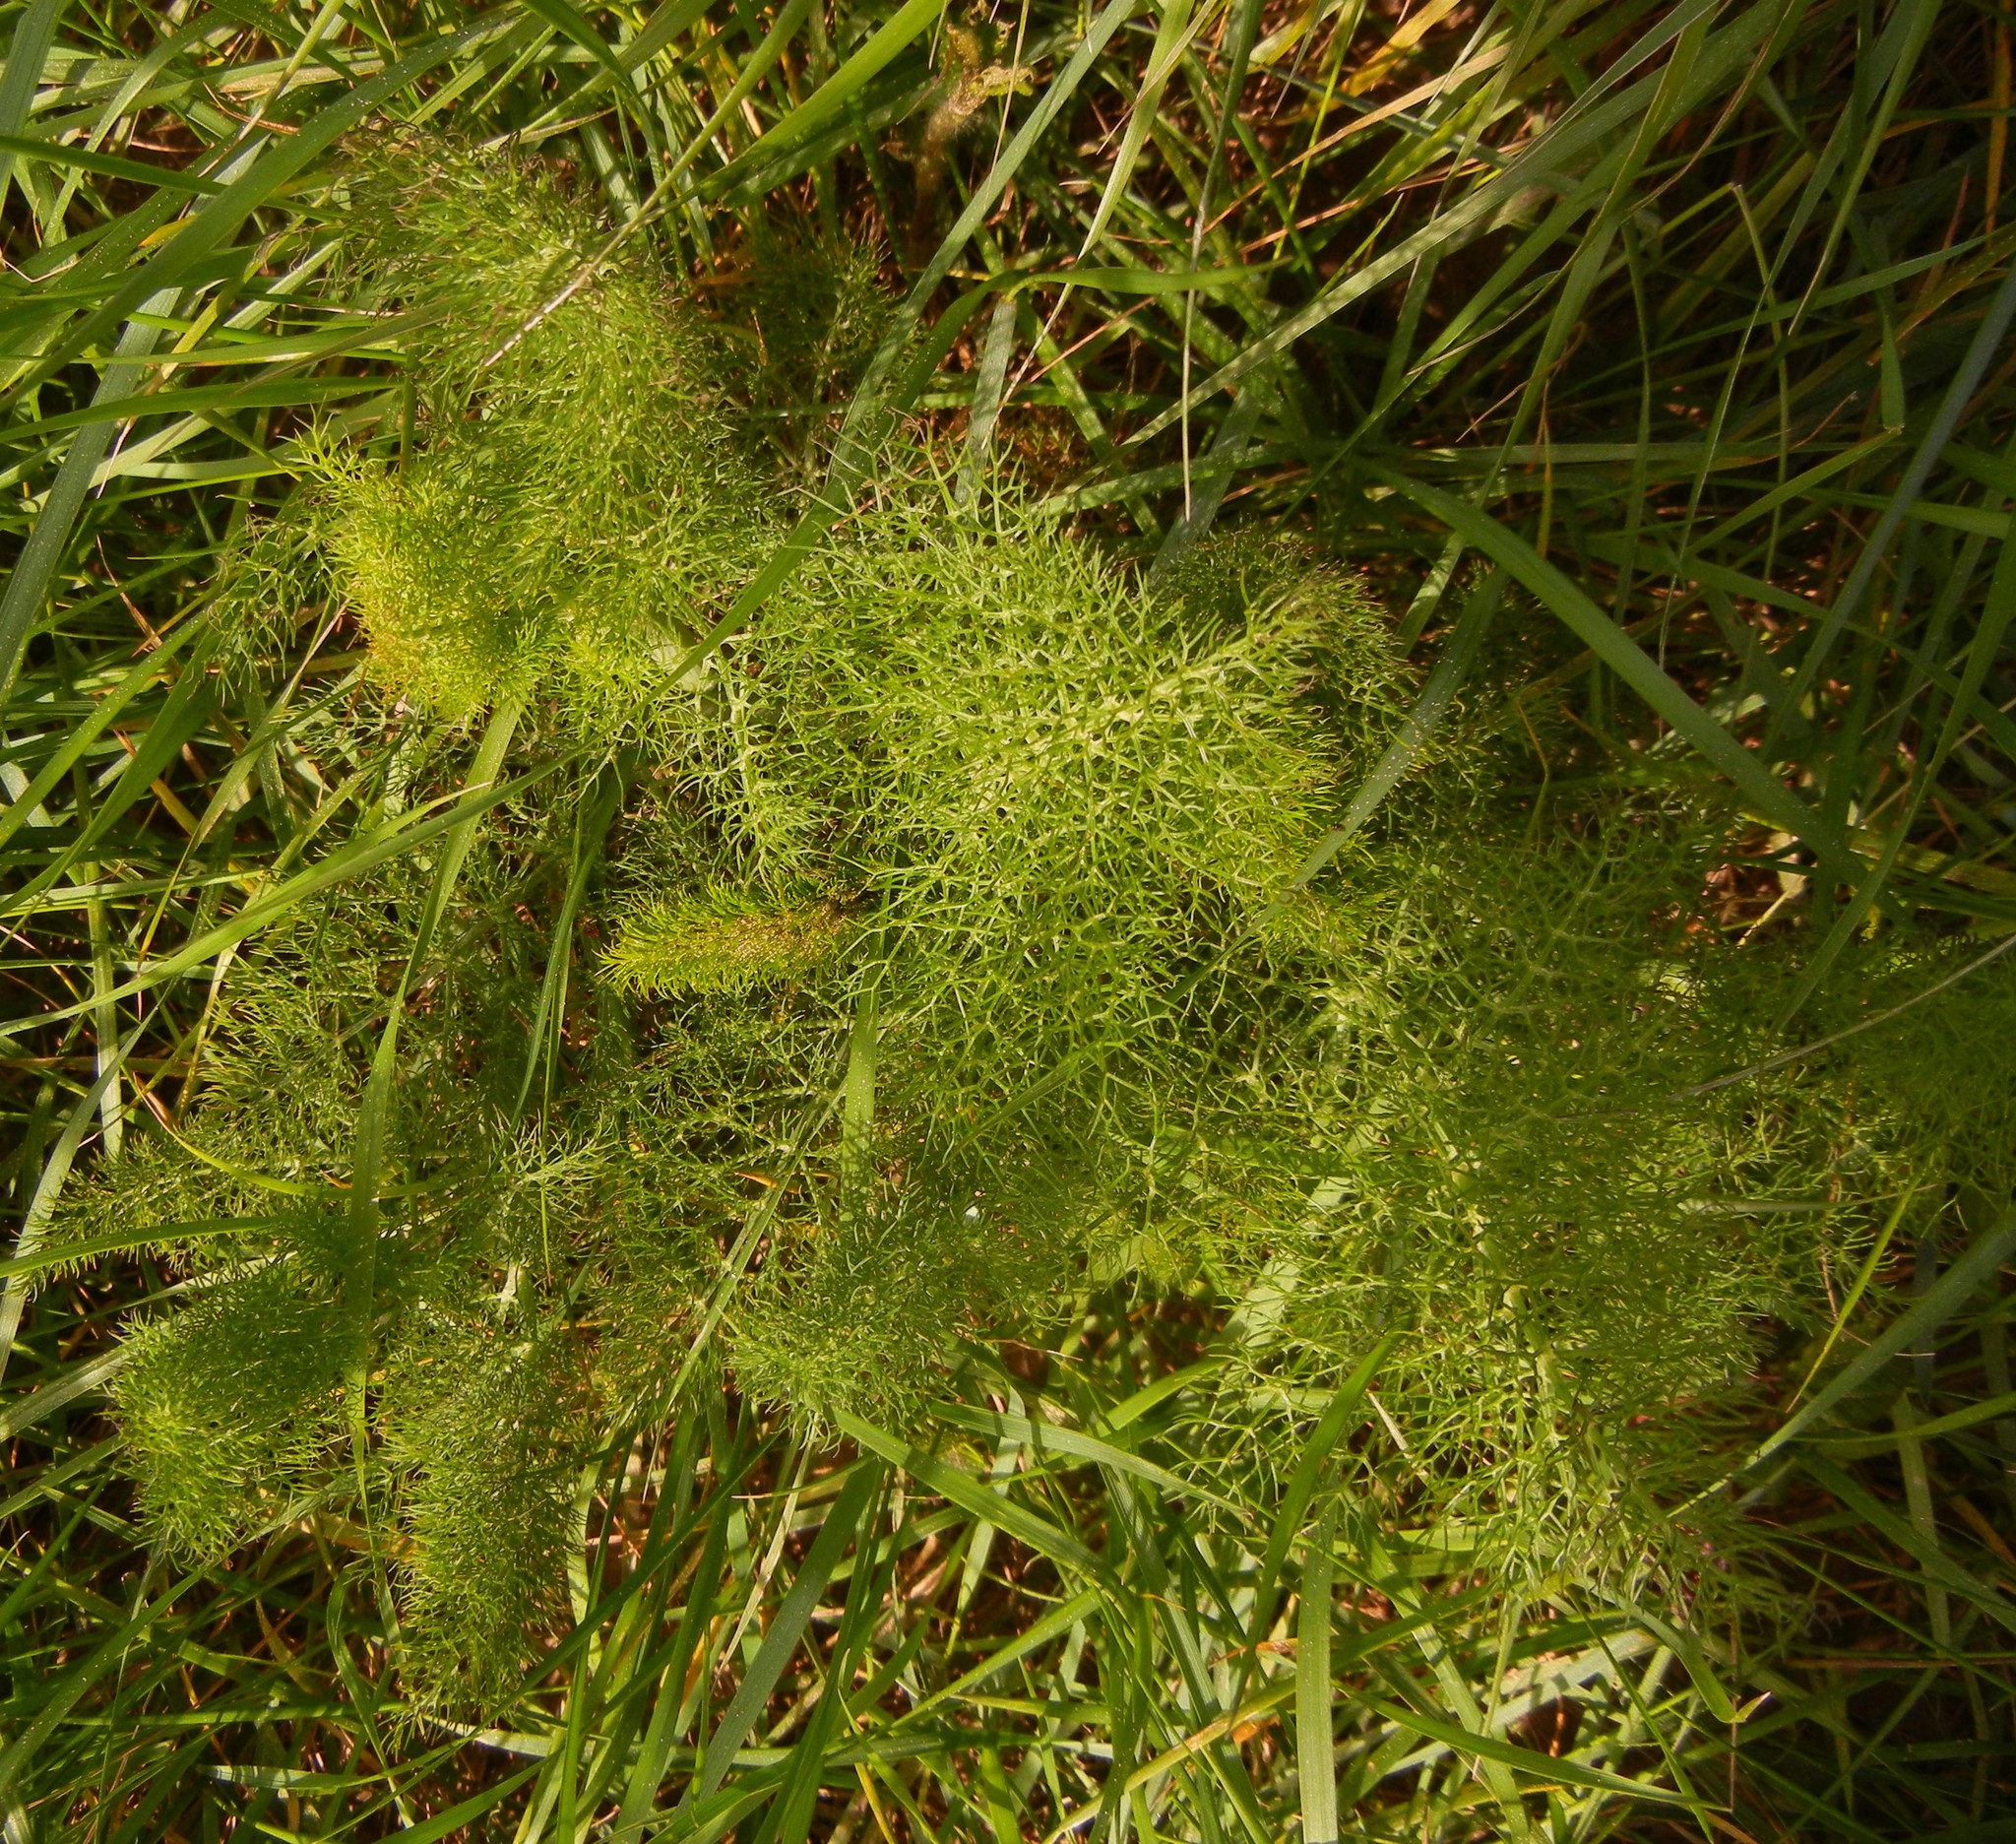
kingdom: Plantae
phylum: Tracheophyta
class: Magnoliopsida
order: Apiales
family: Apiaceae
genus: Foeniculum
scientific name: Foeniculum vulgare
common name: Fennel
